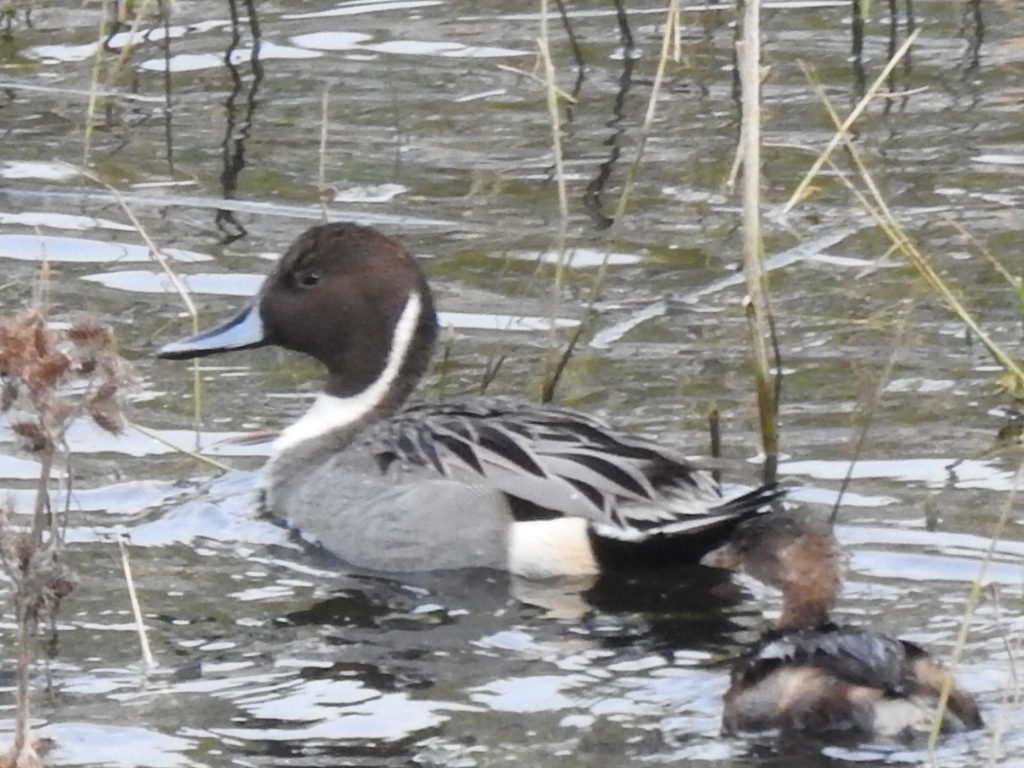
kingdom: Animalia
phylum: Chordata
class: Aves
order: Anseriformes
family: Anatidae
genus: Anas
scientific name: Anas acuta
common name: Northern pintail
